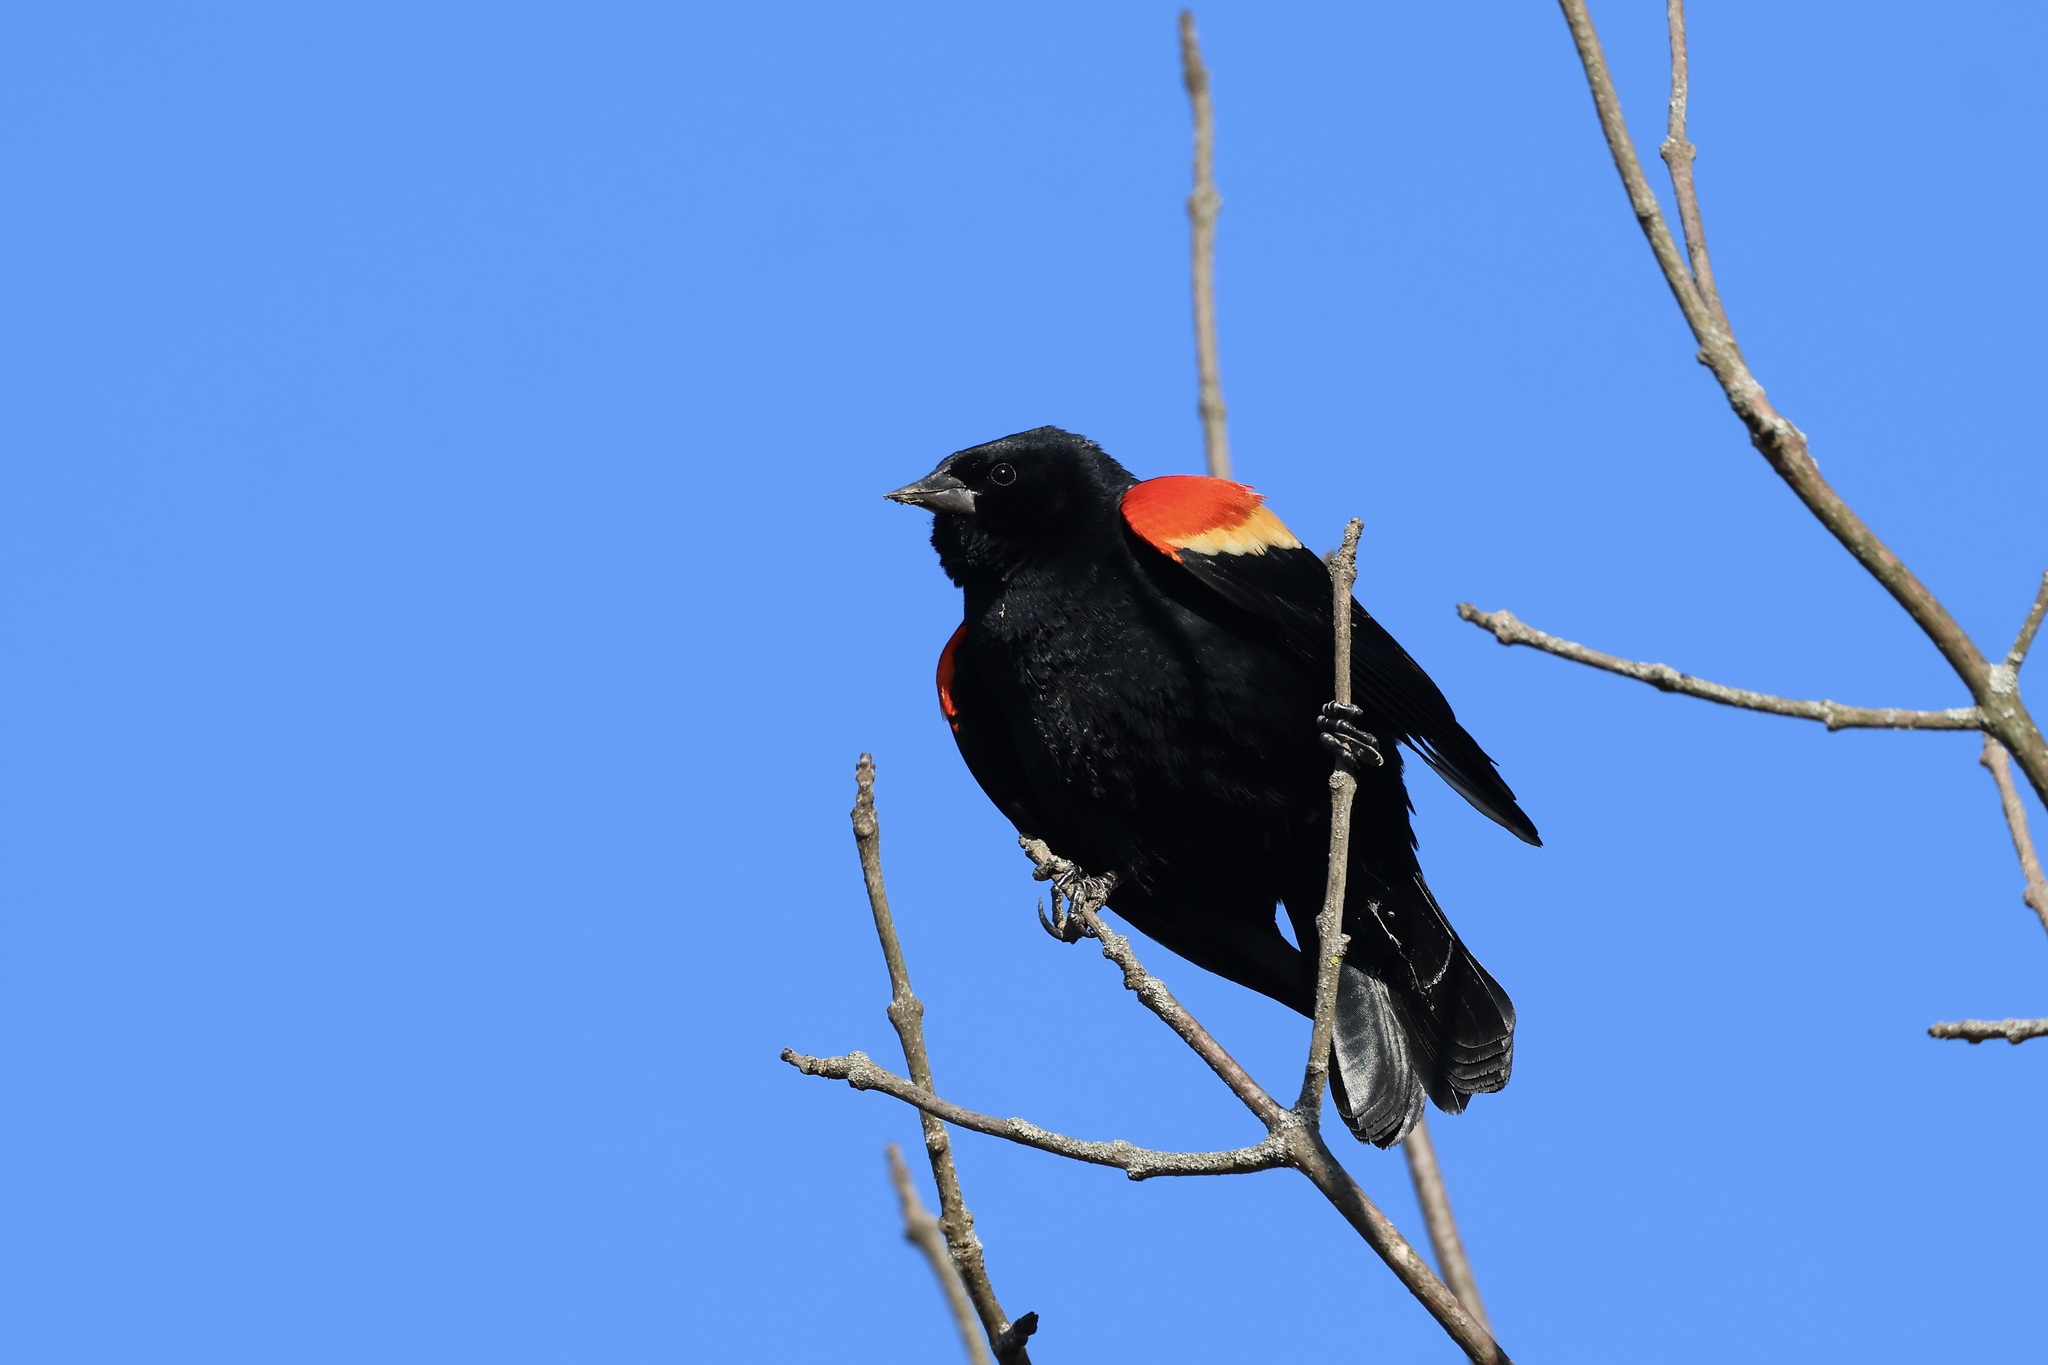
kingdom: Animalia
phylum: Chordata
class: Aves
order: Passeriformes
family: Icteridae
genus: Agelaius
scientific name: Agelaius phoeniceus
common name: Red-winged blackbird
